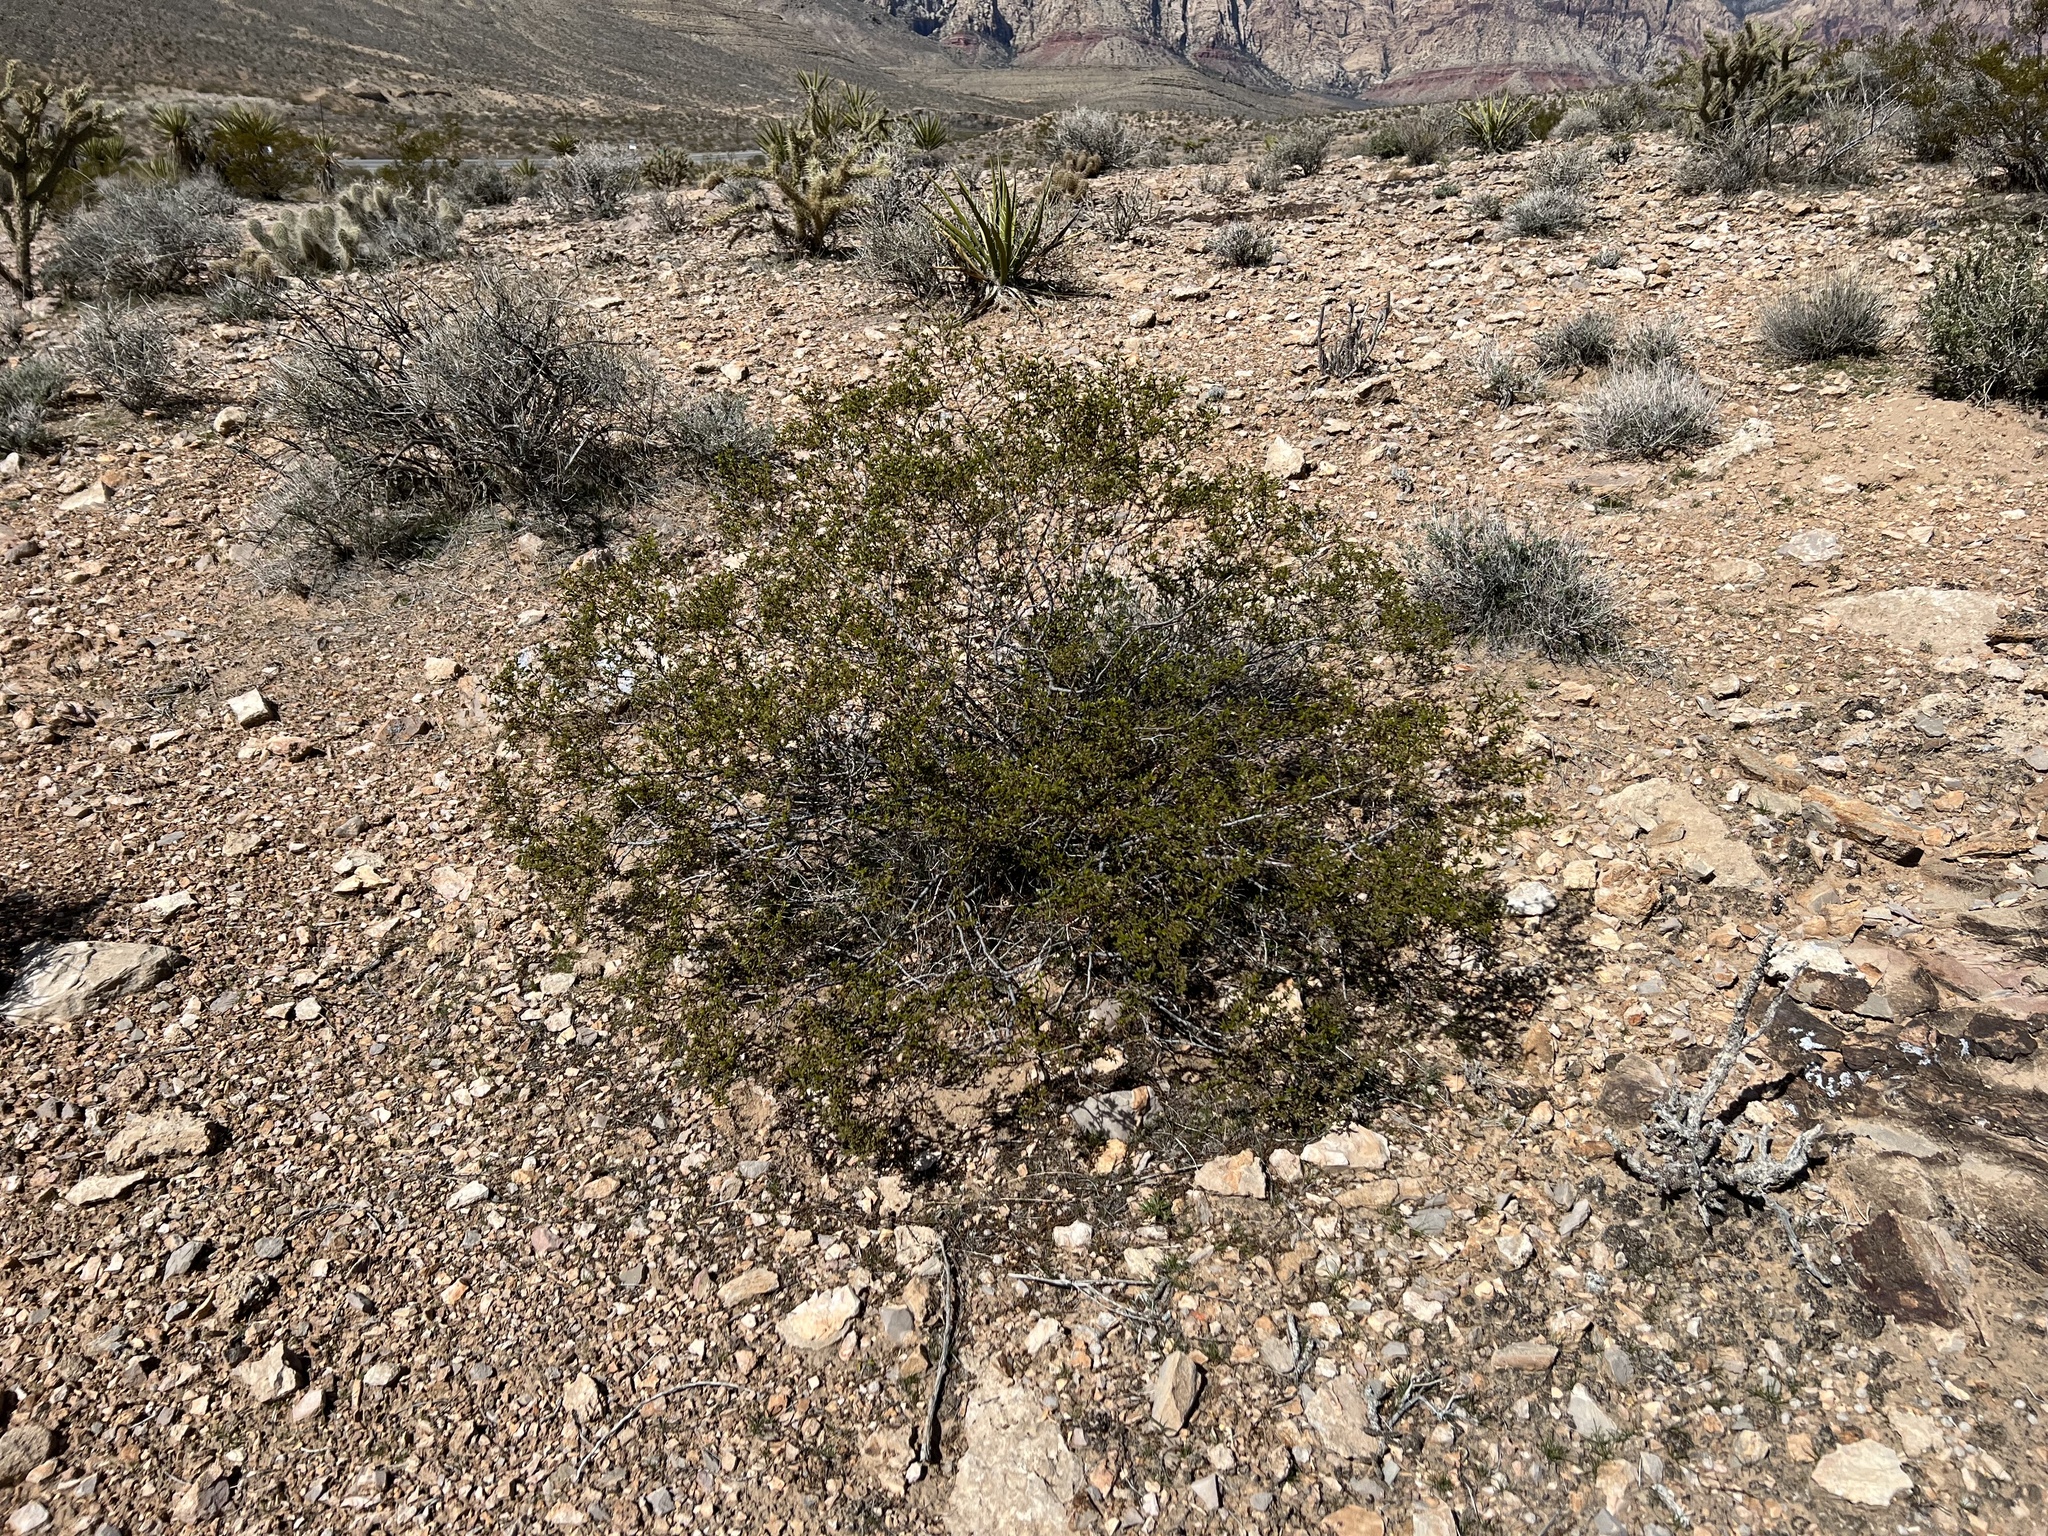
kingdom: Plantae
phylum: Tracheophyta
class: Magnoliopsida
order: Zygophyllales
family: Zygophyllaceae
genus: Larrea
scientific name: Larrea tridentata
